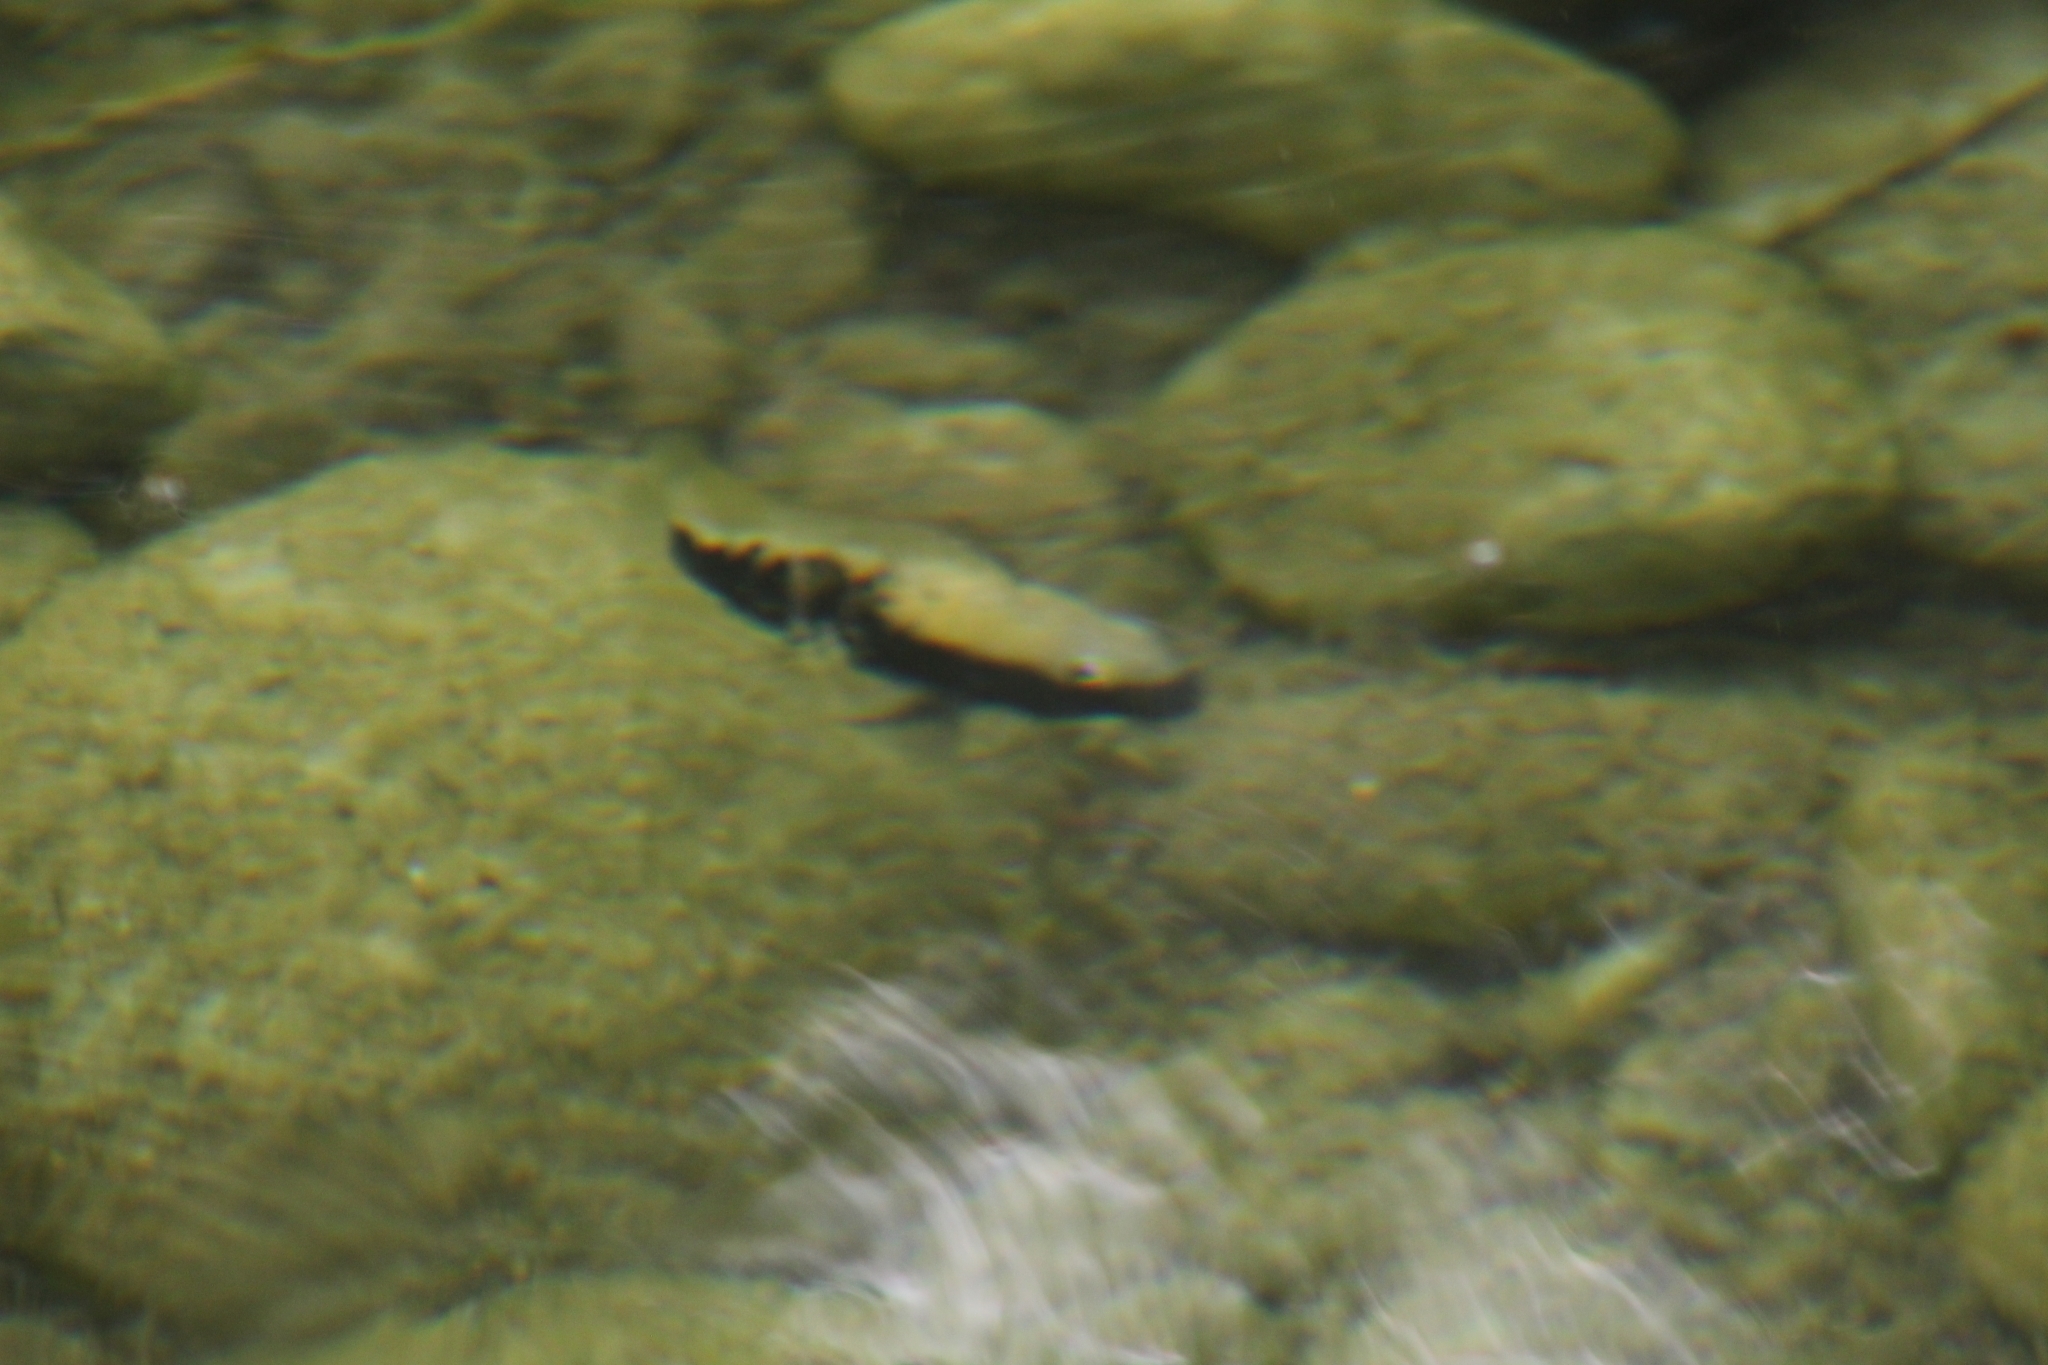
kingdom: Animalia
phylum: Chordata
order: Perciformes
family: Cichlidae
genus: Nosferatu
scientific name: Nosferatu pantostictus
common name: Chairel cichlid
